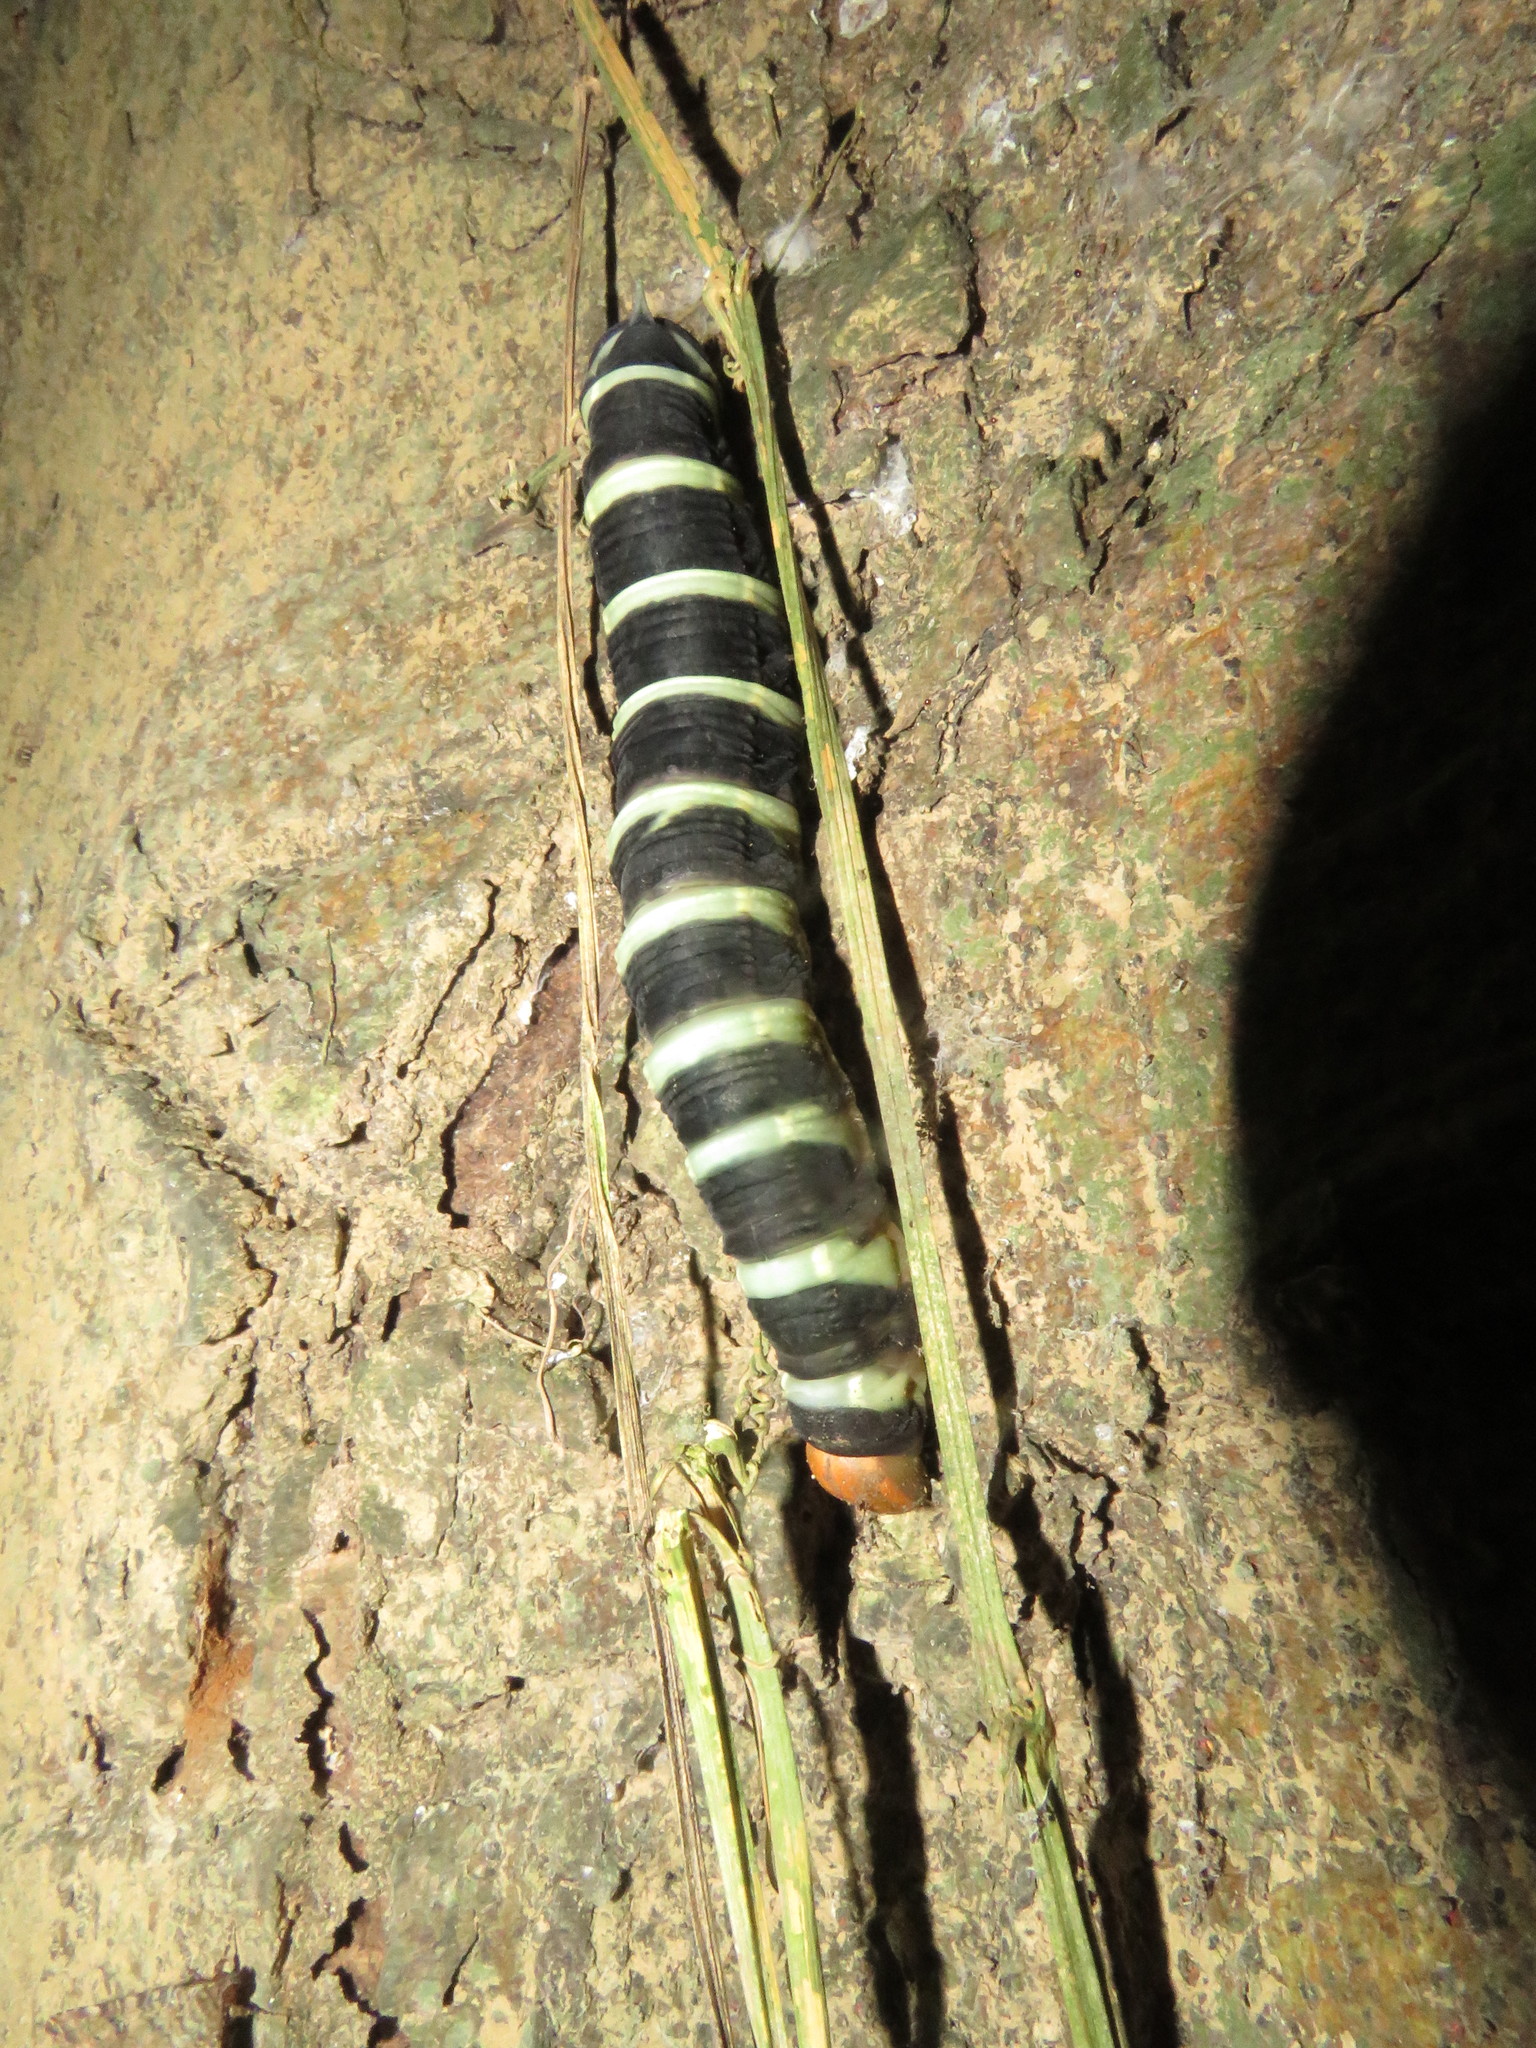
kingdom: Animalia
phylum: Arthropoda
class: Insecta
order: Lepidoptera
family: Sphingidae
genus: Pachylia
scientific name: Pachylia syces
